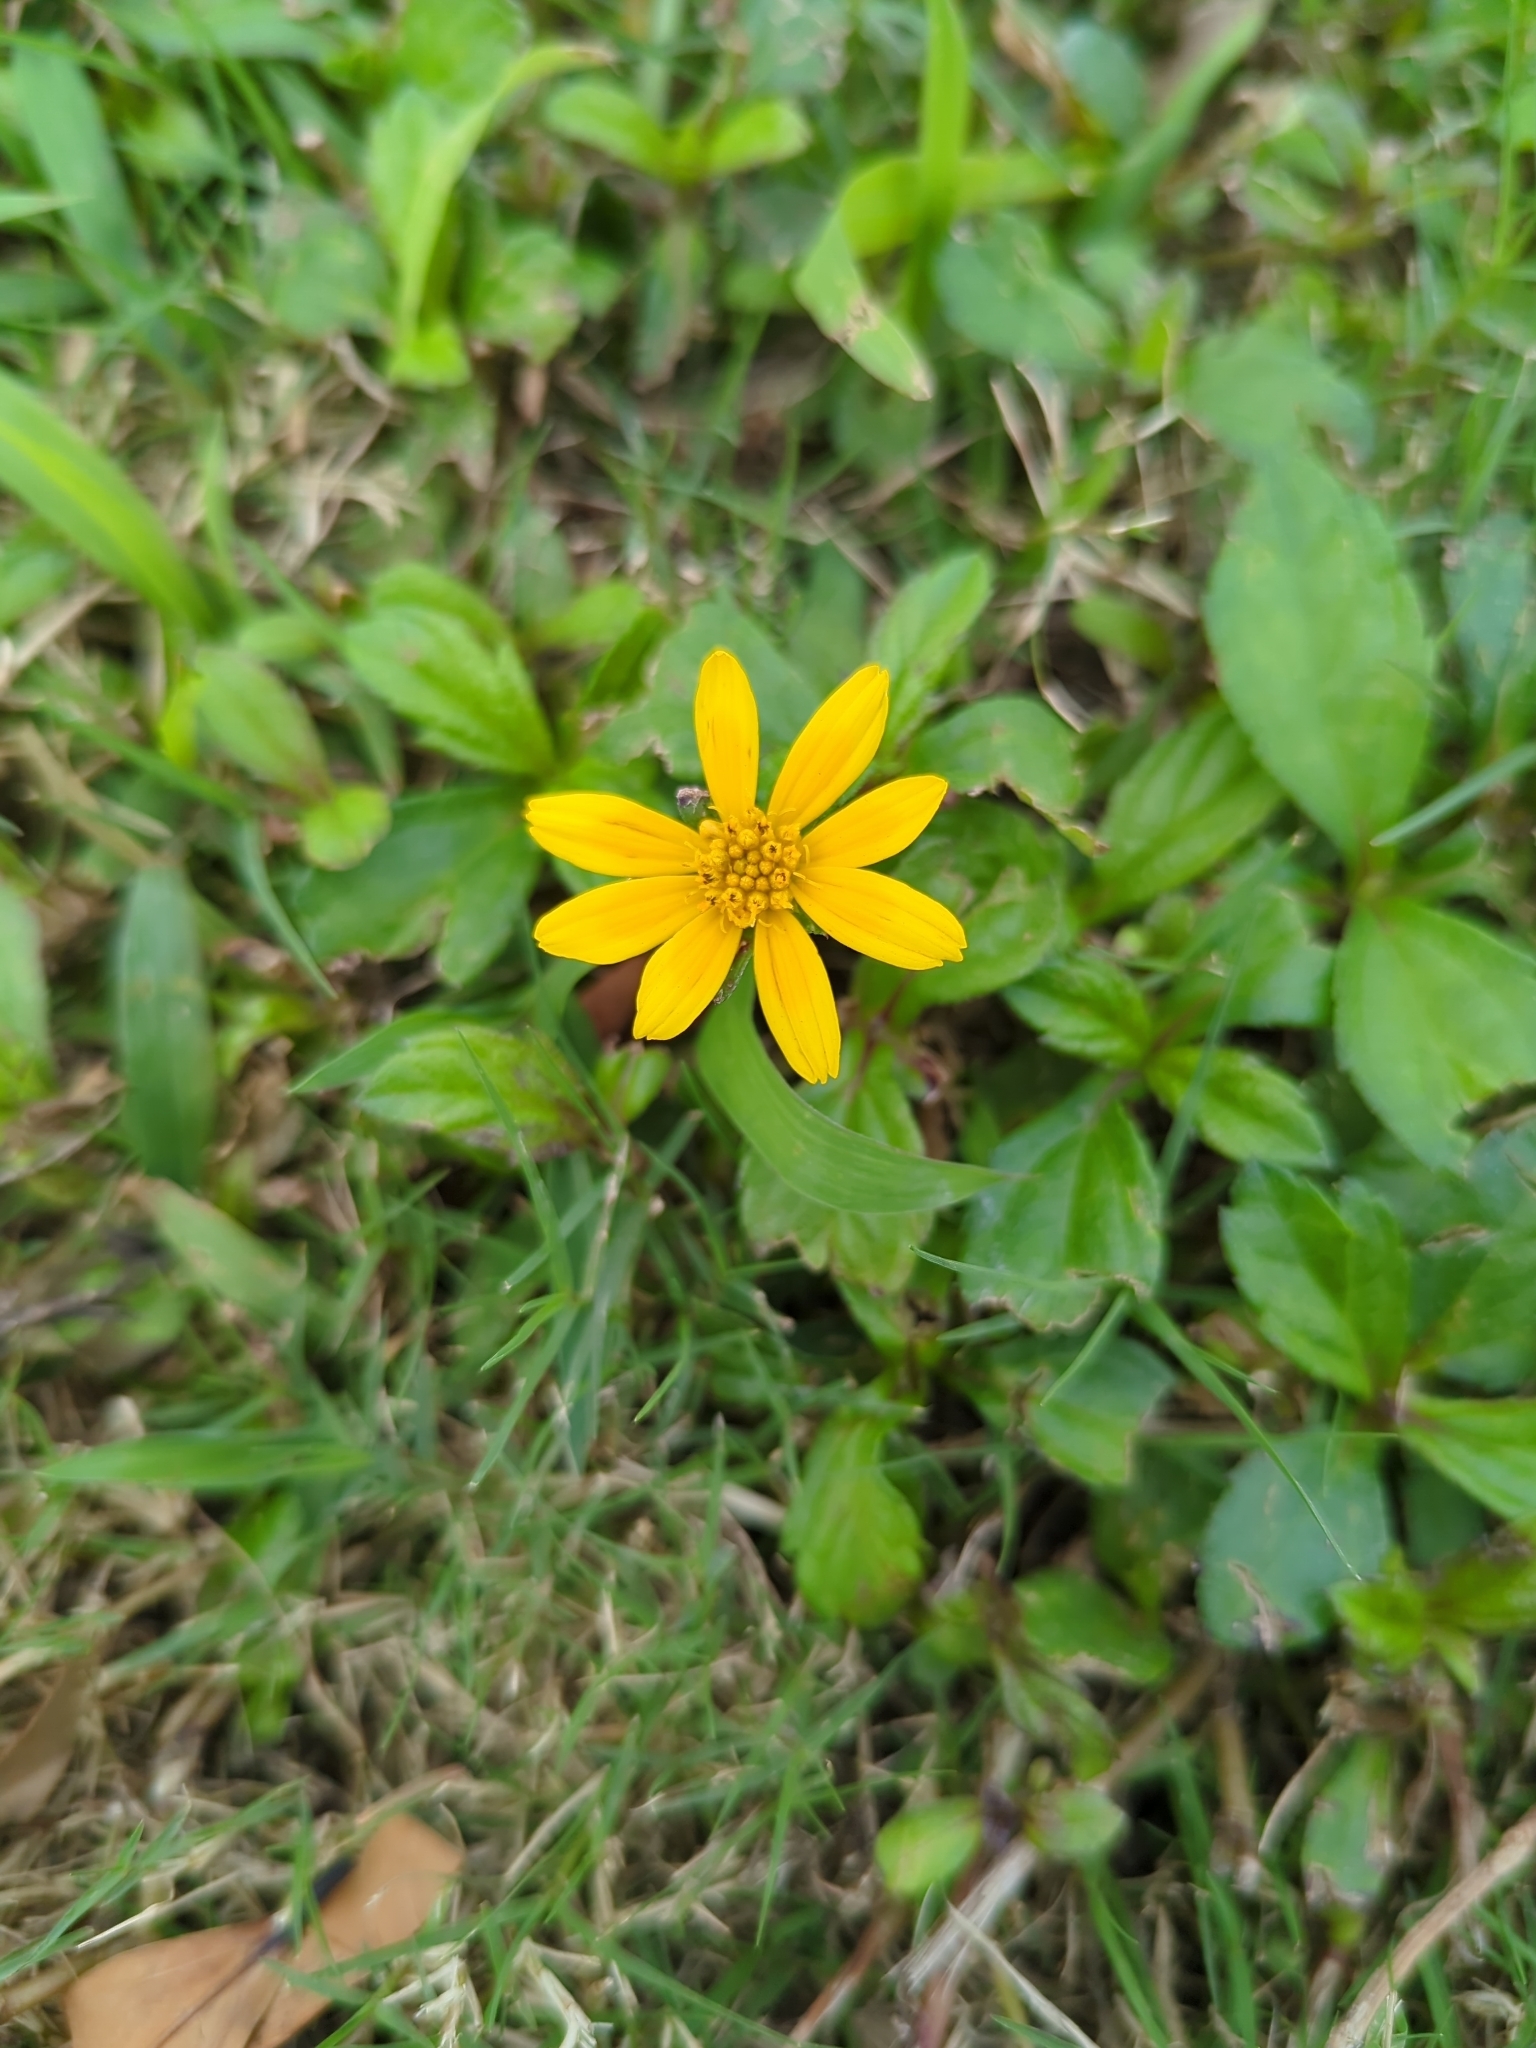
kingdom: Plantae
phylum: Tracheophyta
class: Magnoliopsida
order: Asterales
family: Asteraceae
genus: Sphagneticola
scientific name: Sphagneticola trilobata
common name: Bay biscayne creeping-oxeye
